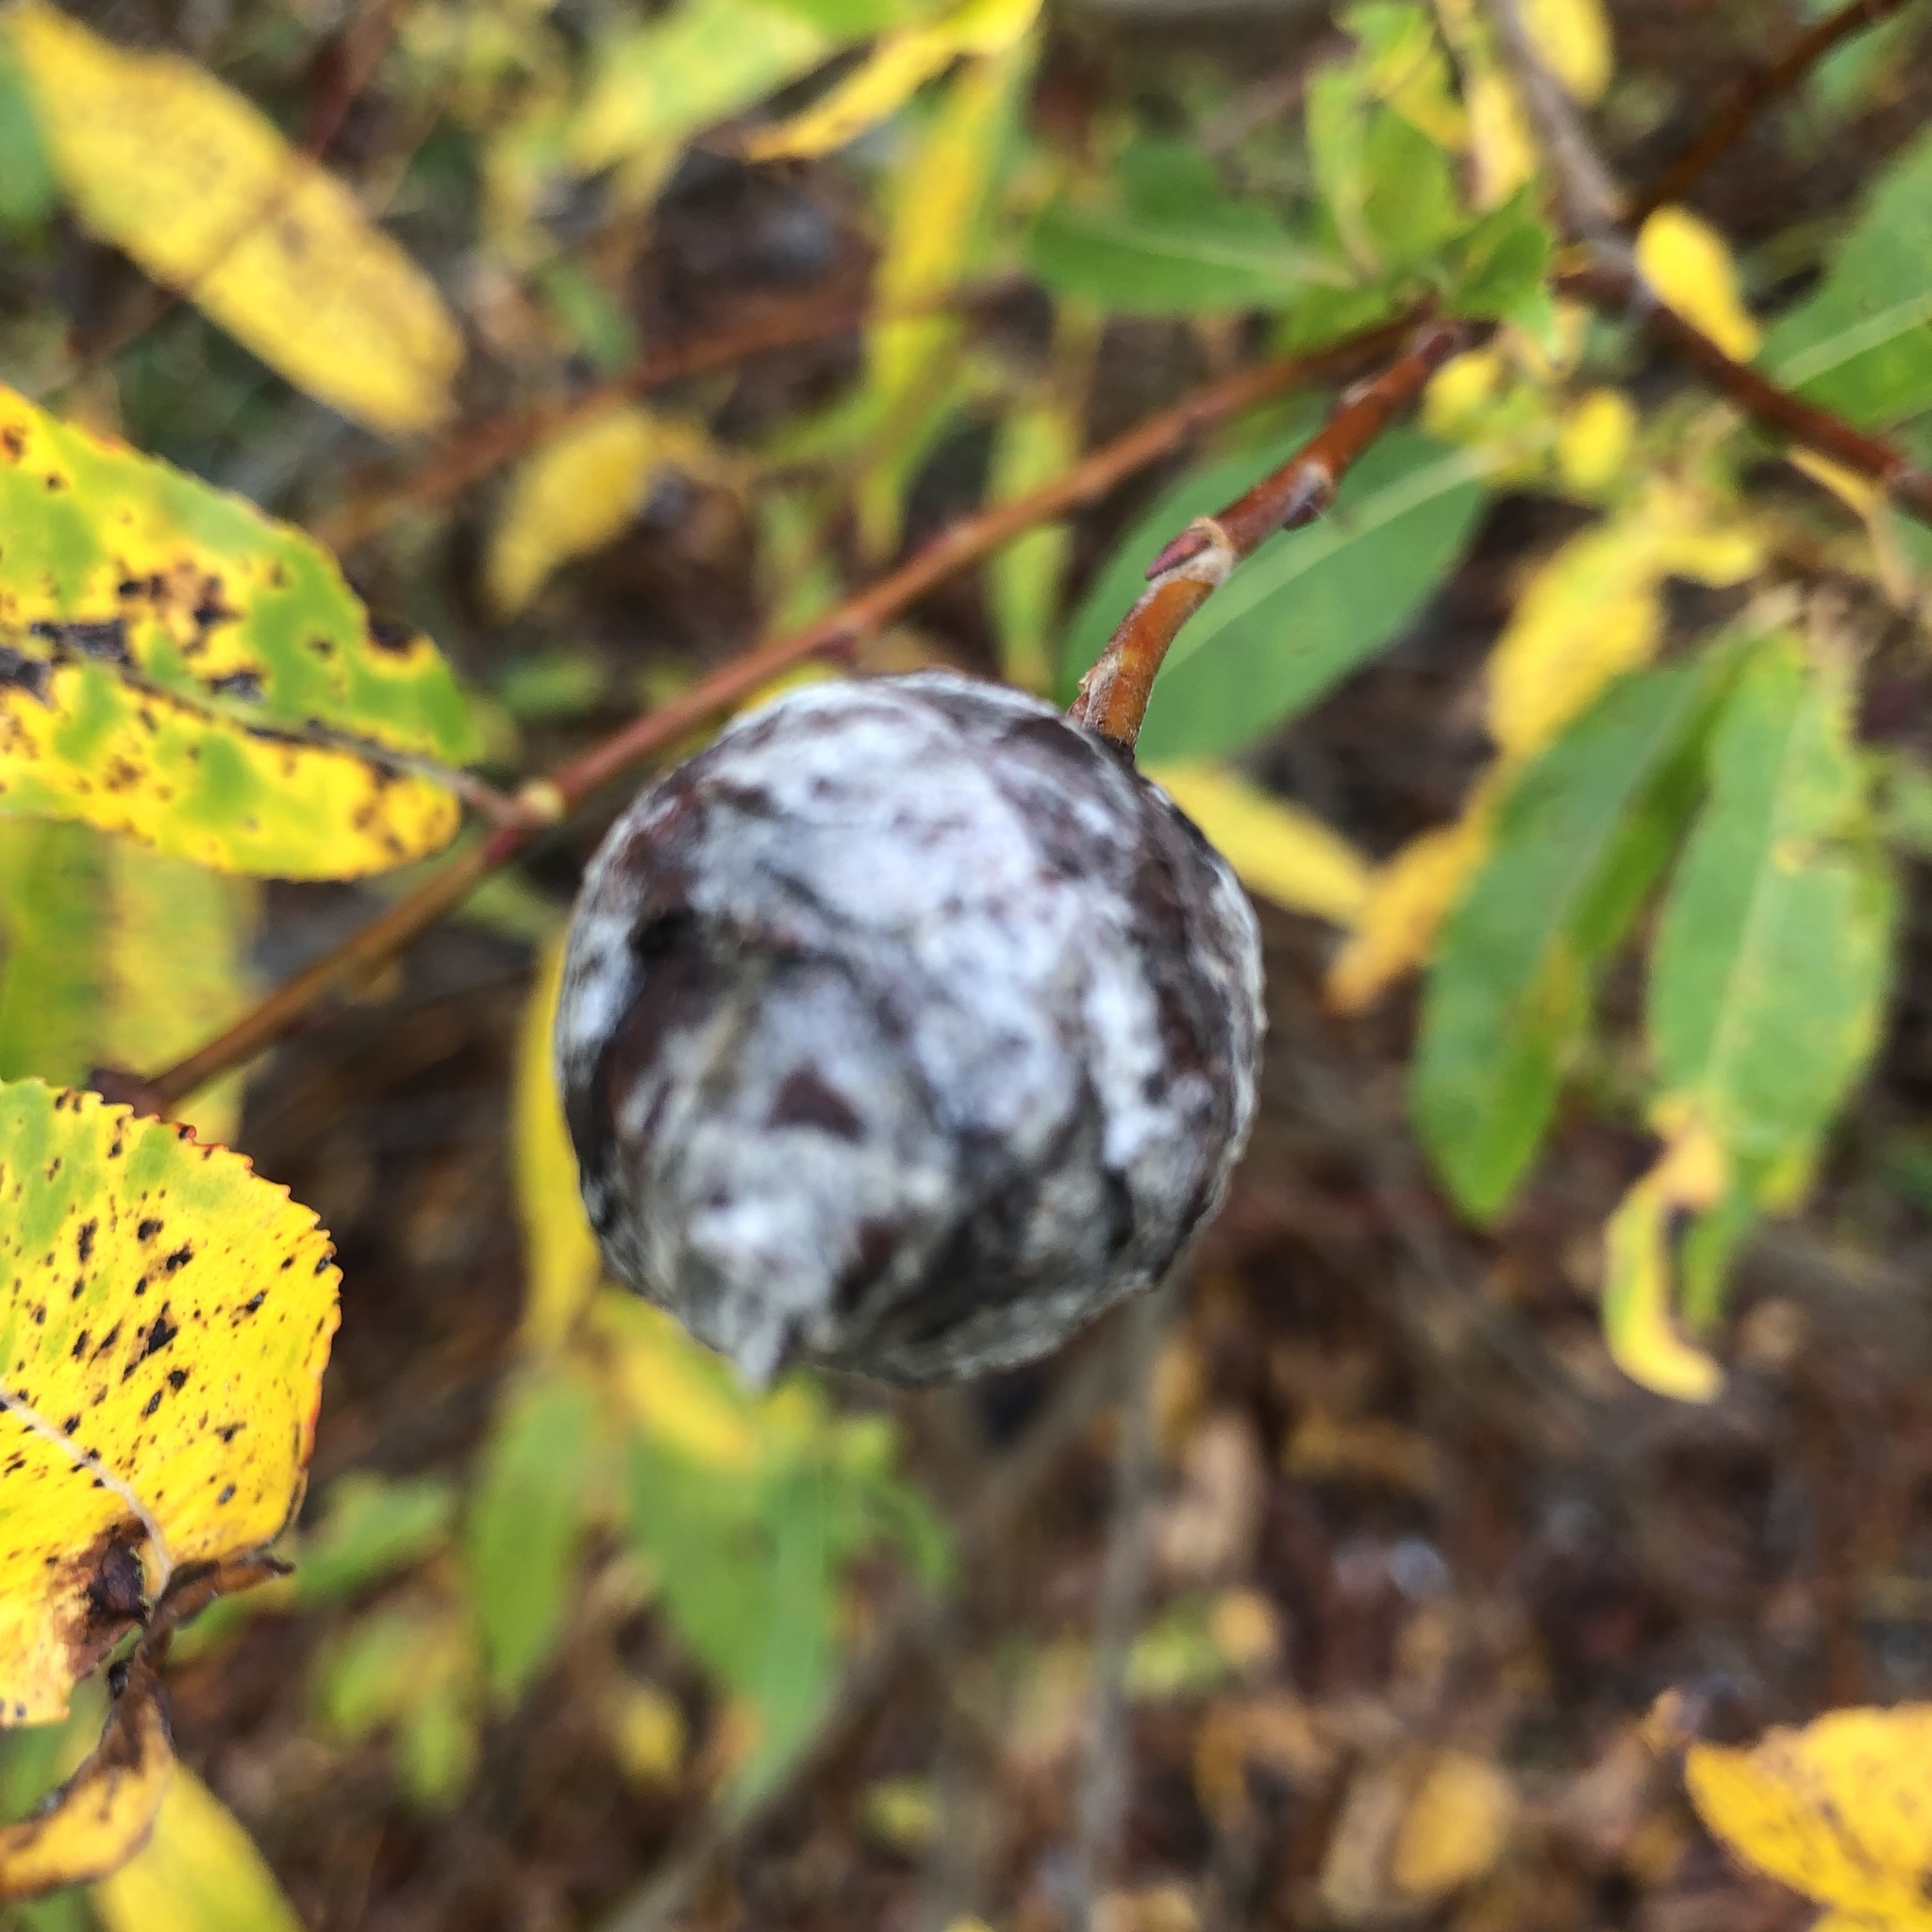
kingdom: Animalia
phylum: Arthropoda
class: Insecta
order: Diptera
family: Cecidomyiidae
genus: Rabdophaga
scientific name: Rabdophaga strobiloides
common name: Willow pinecone gall midge
